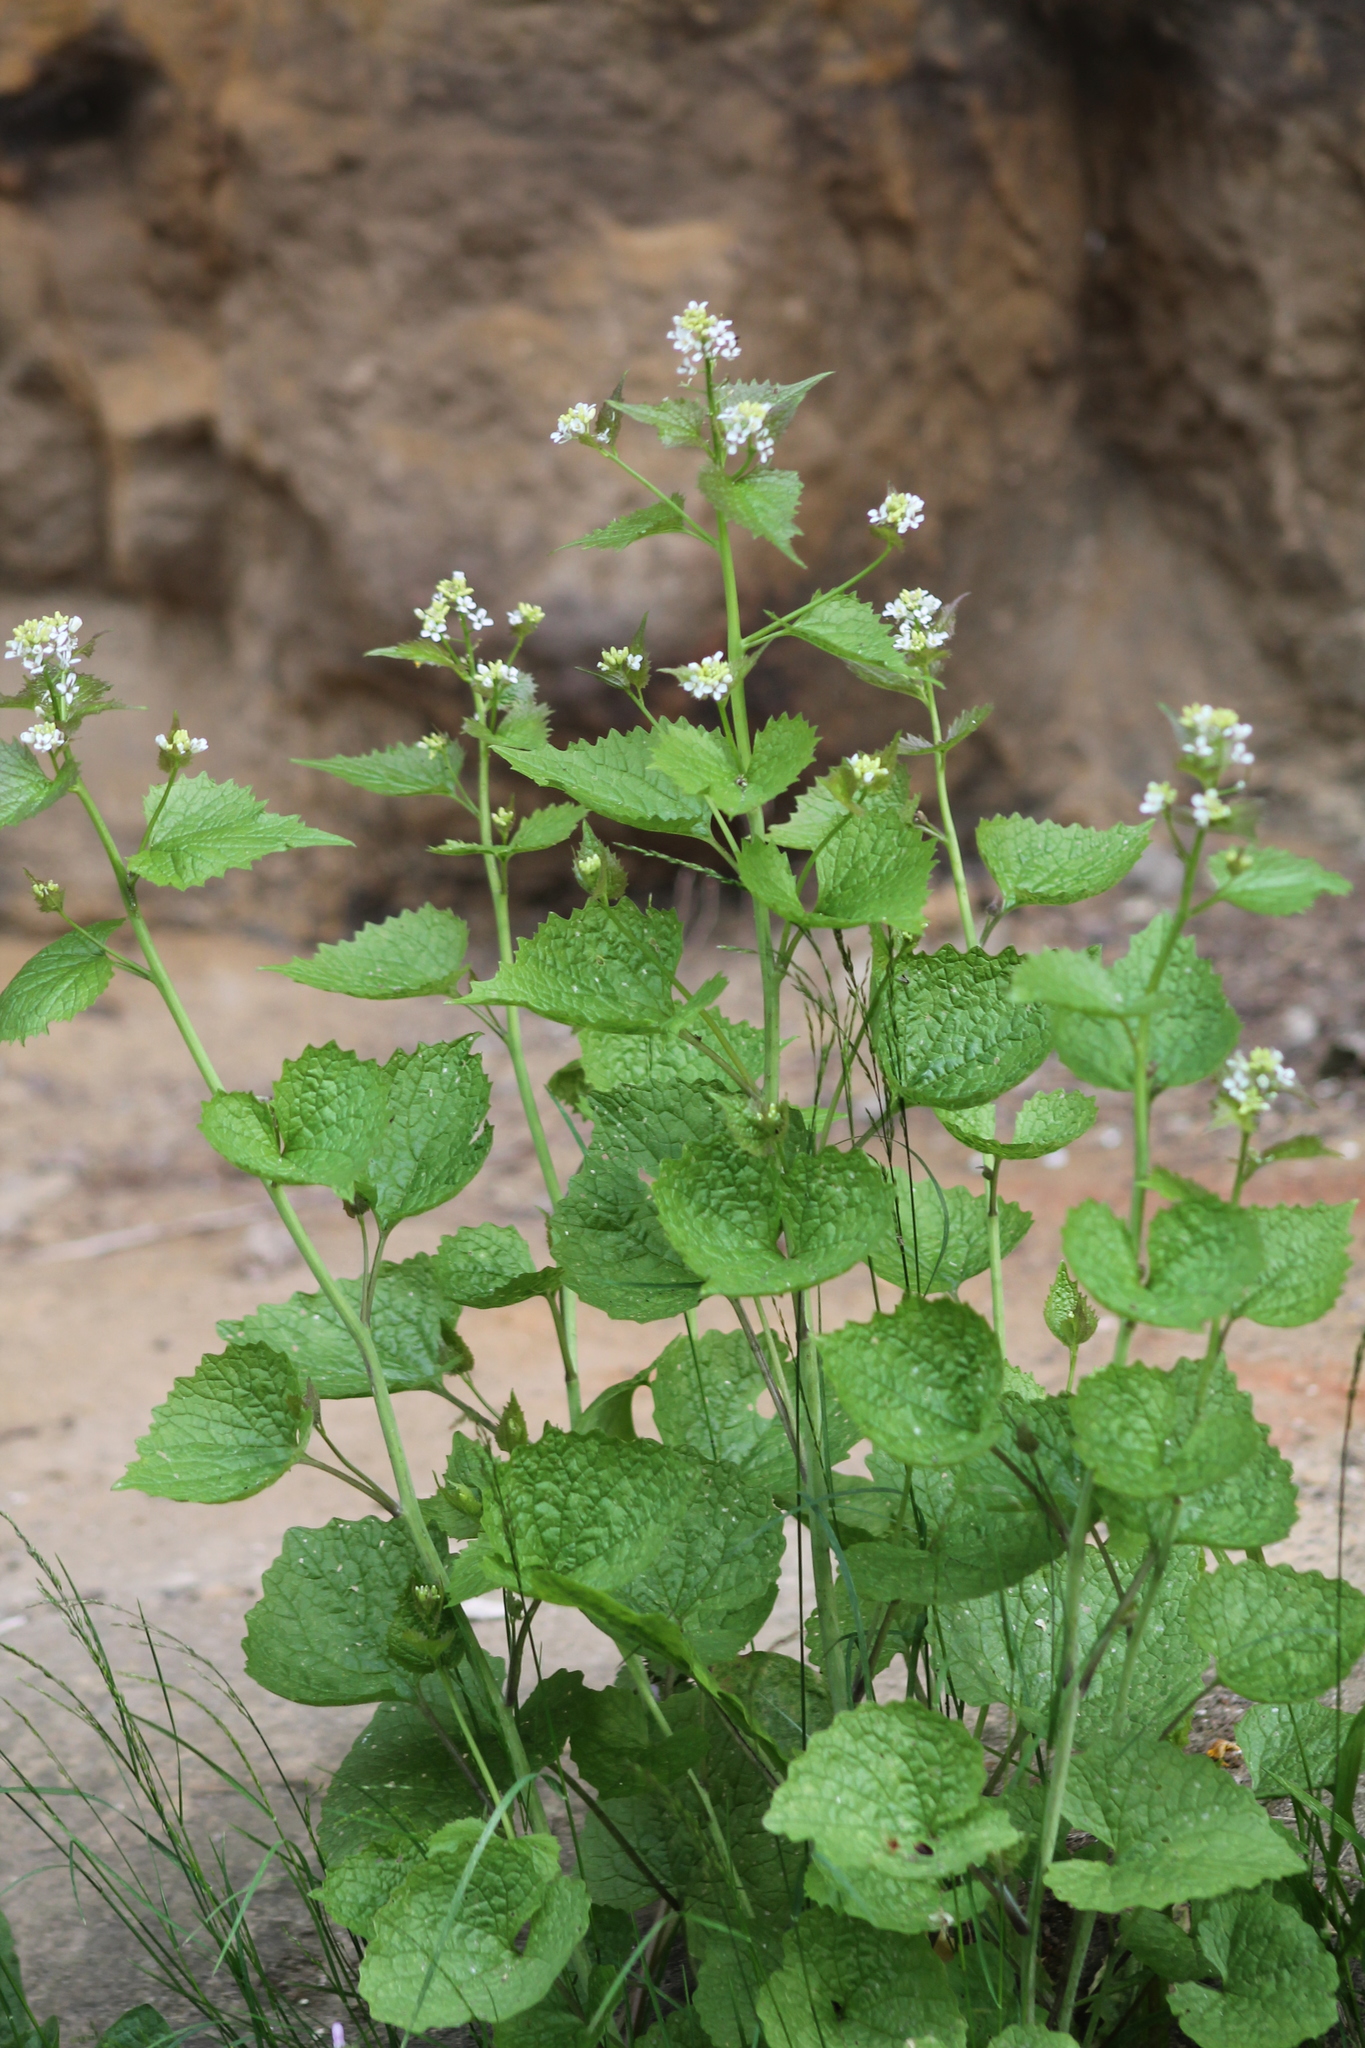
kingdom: Plantae
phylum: Tracheophyta
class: Magnoliopsida
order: Brassicales
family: Brassicaceae
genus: Alliaria
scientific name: Alliaria petiolata
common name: Garlic mustard
